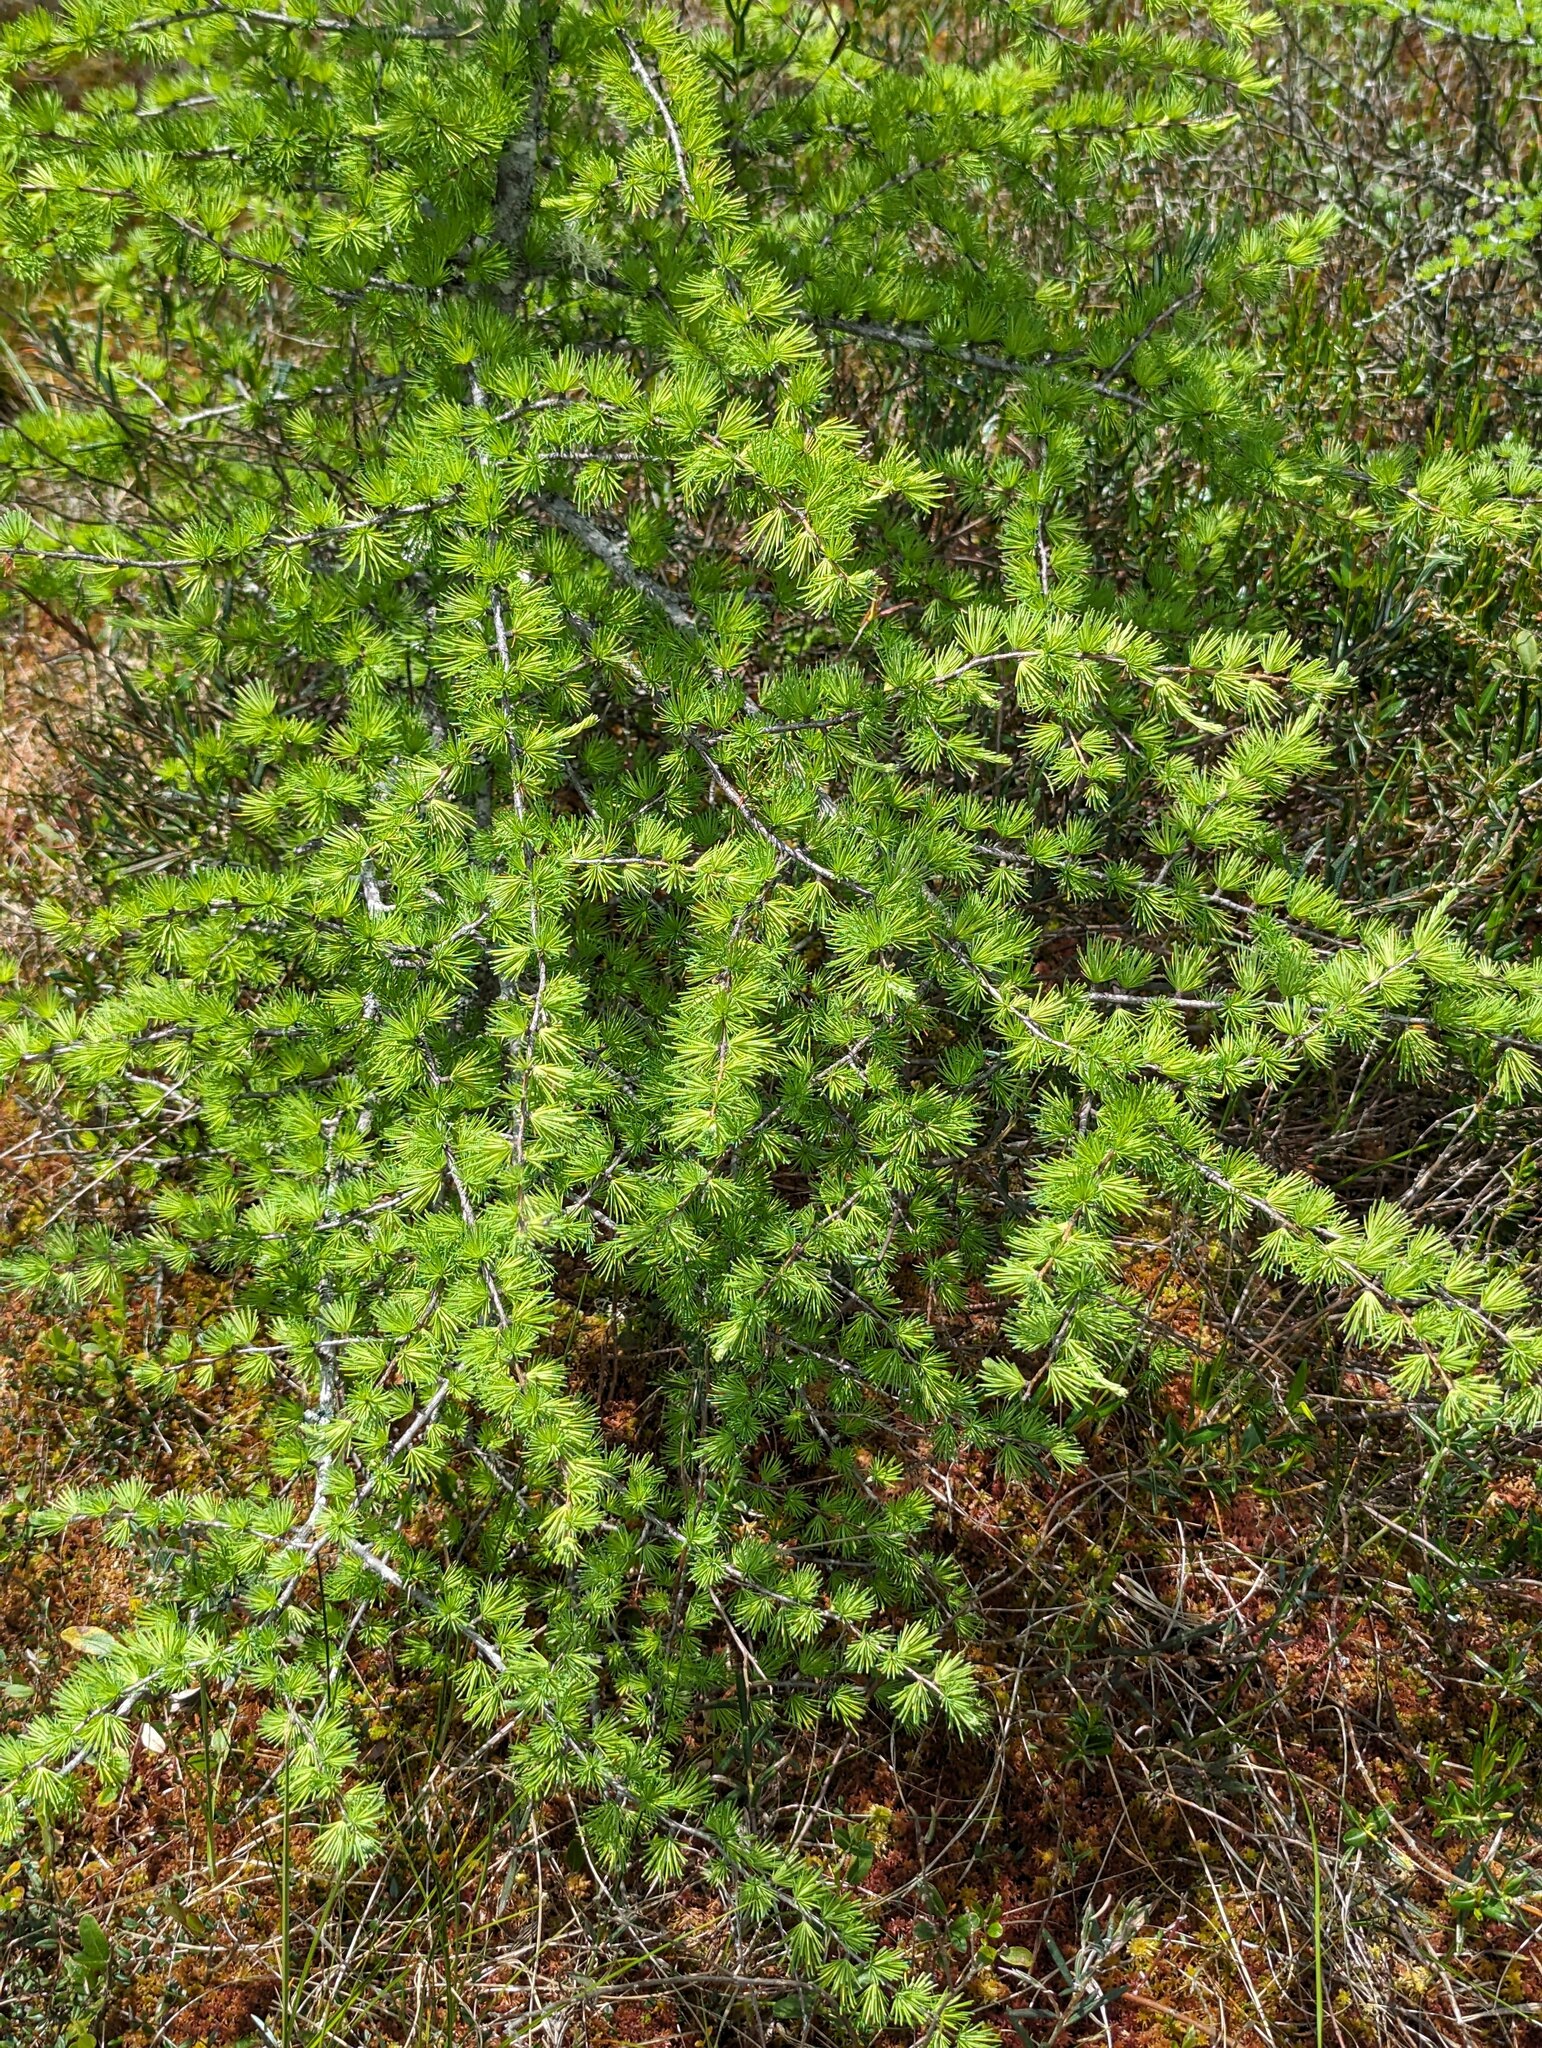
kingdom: Plantae
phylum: Tracheophyta
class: Pinopsida
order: Pinales
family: Pinaceae
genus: Larix
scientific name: Larix laricina
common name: American larch
